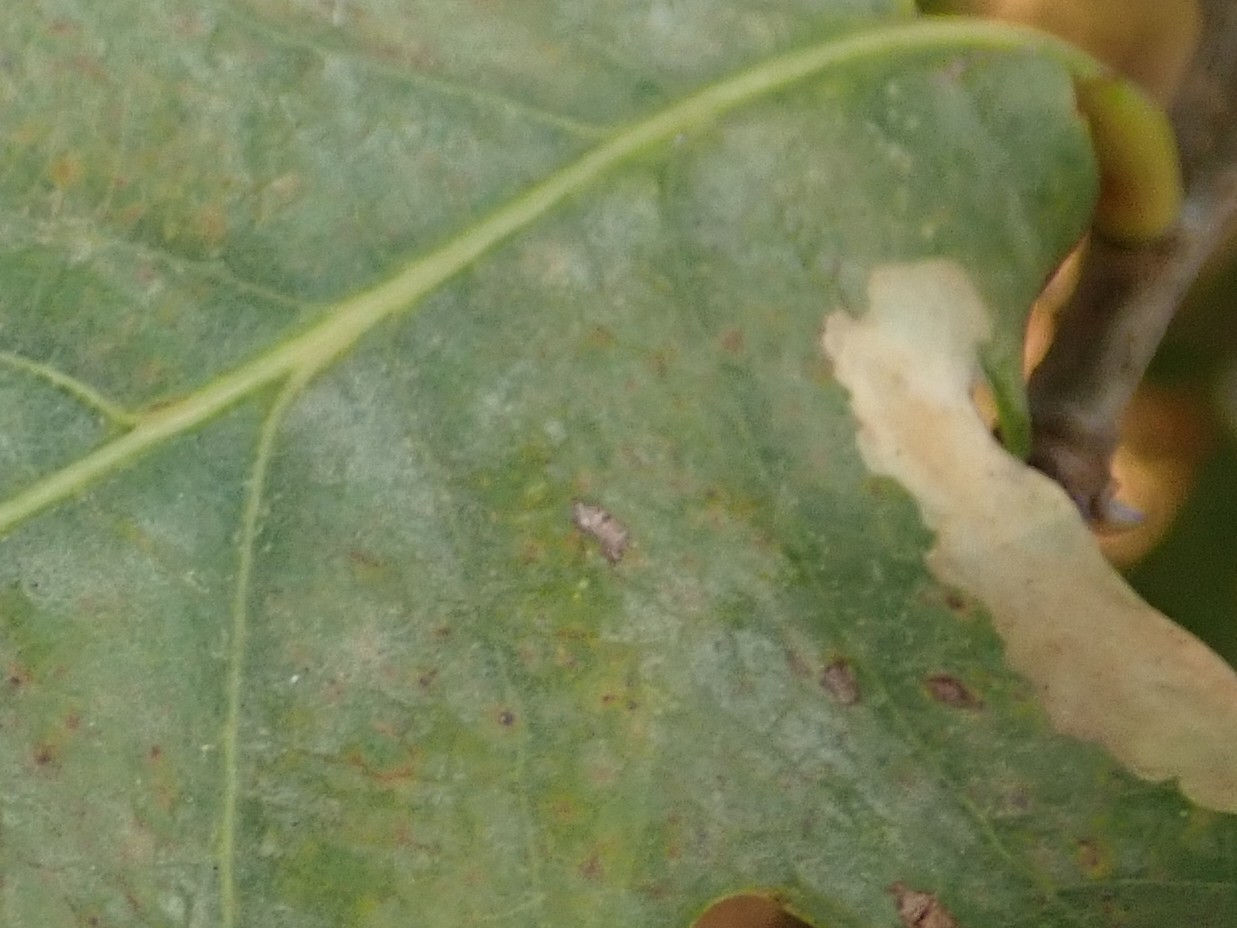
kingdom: Animalia
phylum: Arthropoda
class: Insecta
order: Lepidoptera
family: Tischeriidae
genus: Tischeria
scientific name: Tischeria ekebladella
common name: Oak carl
